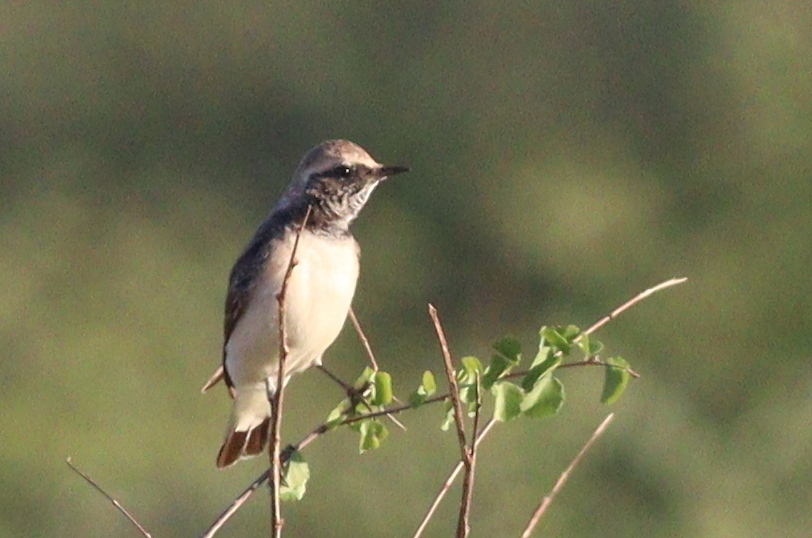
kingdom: Animalia
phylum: Chordata
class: Aves
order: Passeriformes
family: Muscicapidae
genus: Oenanthe
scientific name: Oenanthe pleschanka
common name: Pied wheatear
